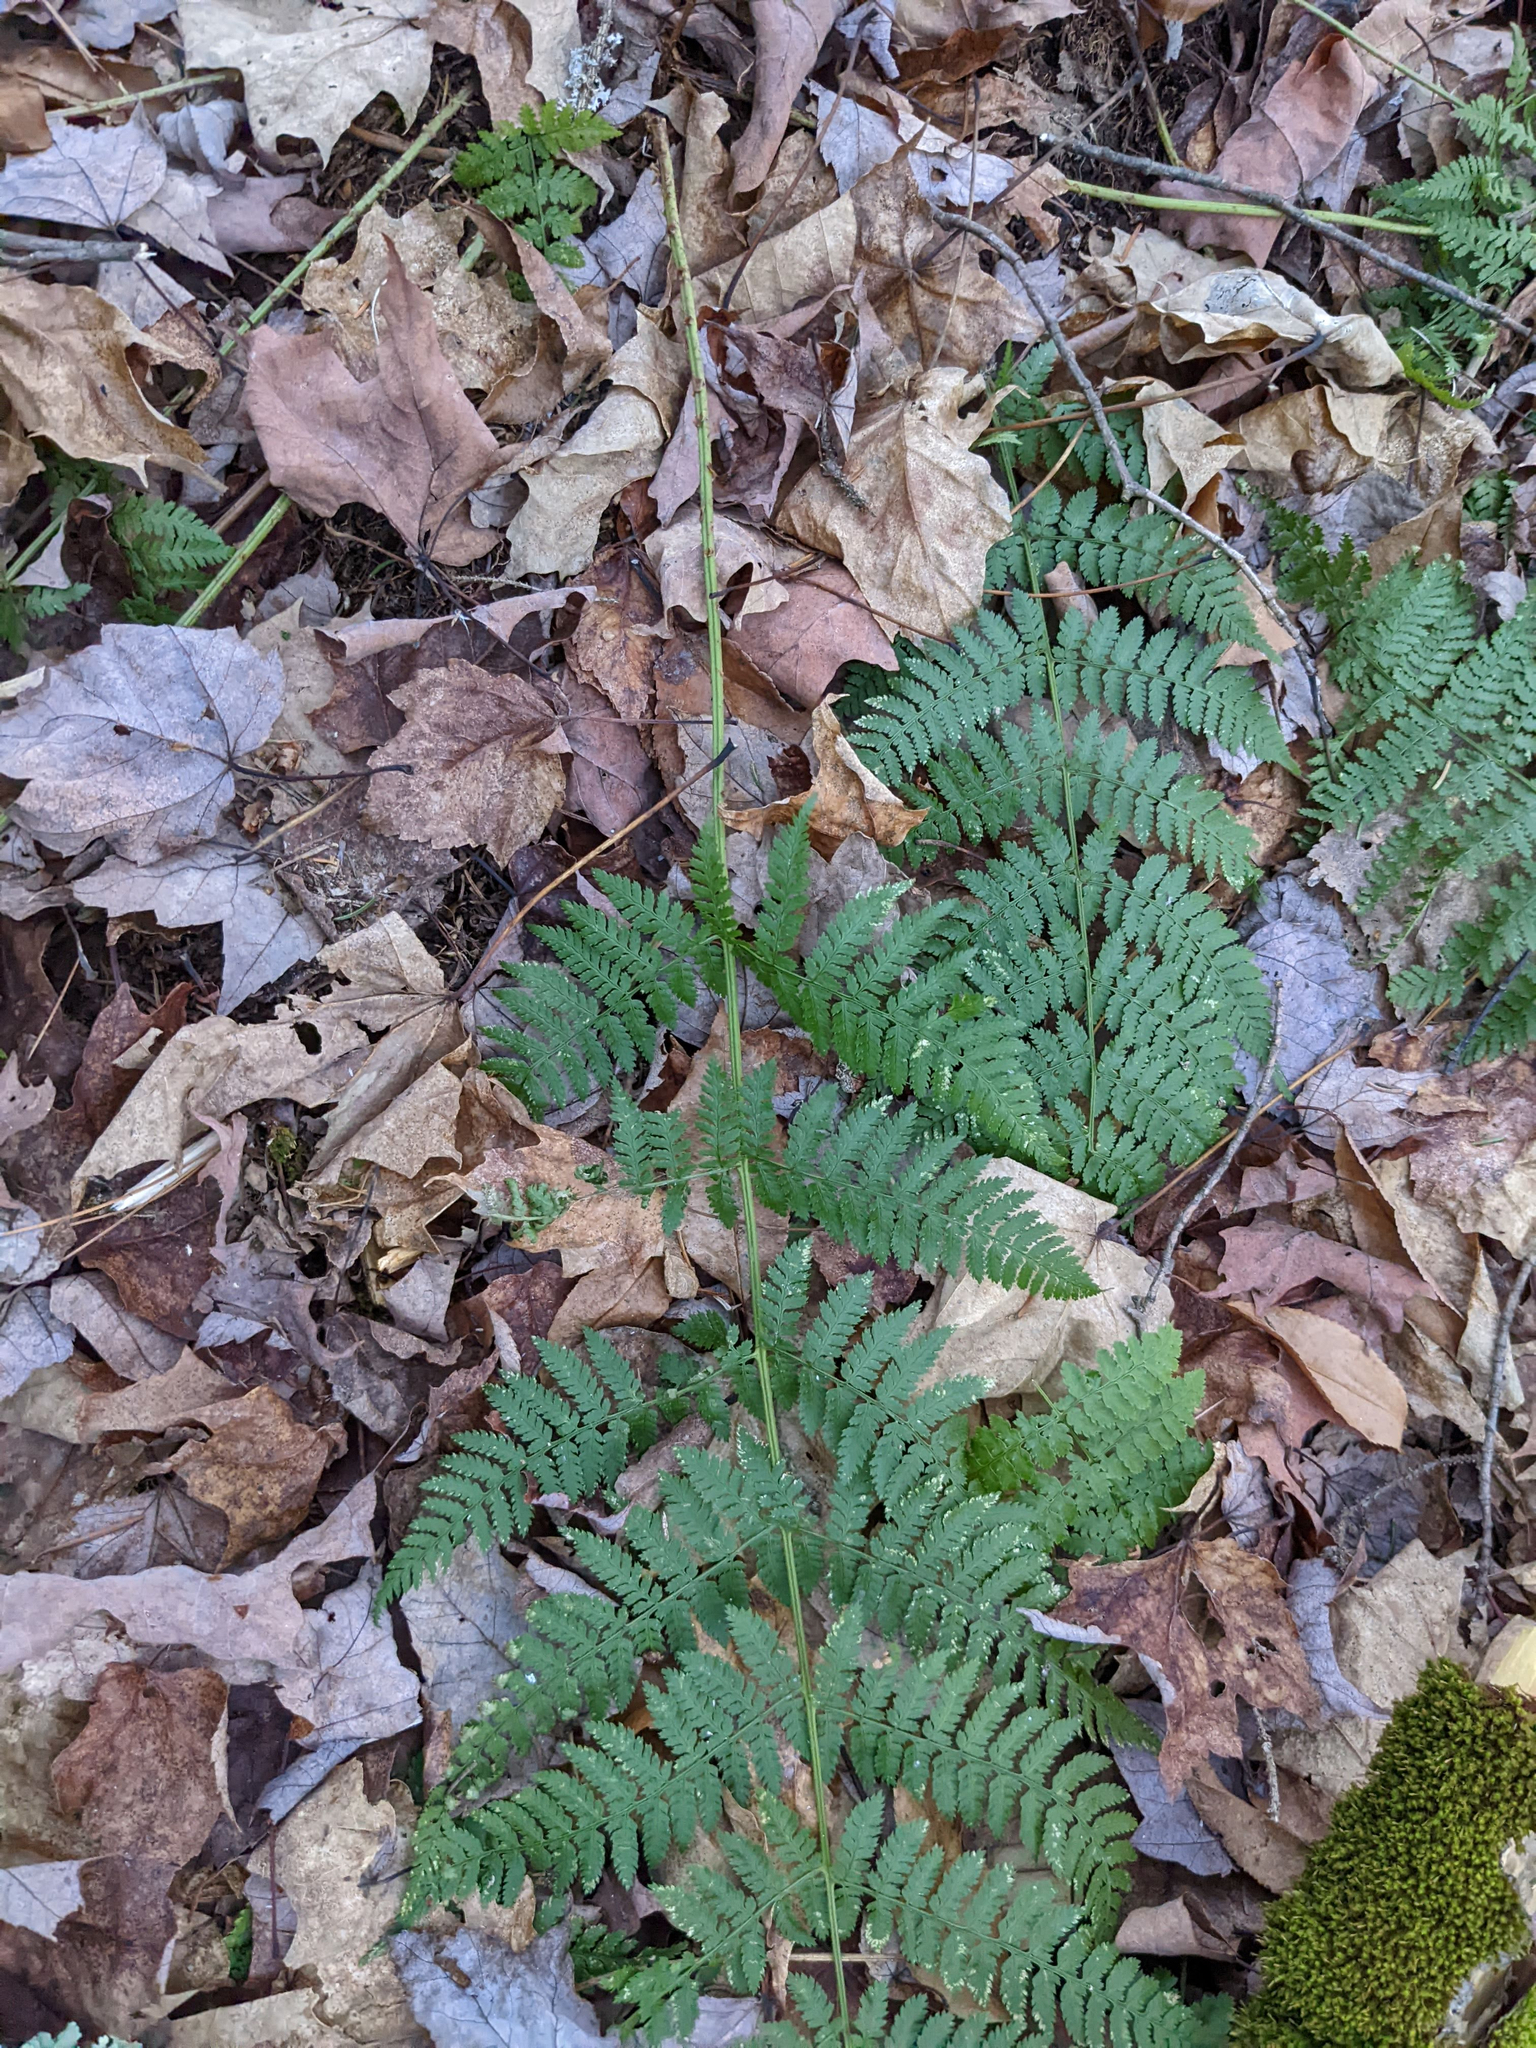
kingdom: Plantae
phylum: Tracheophyta
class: Polypodiopsida
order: Polypodiales
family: Dryopteridaceae
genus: Dryopteris
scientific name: Dryopteris intermedia
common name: Evergreen wood fern
